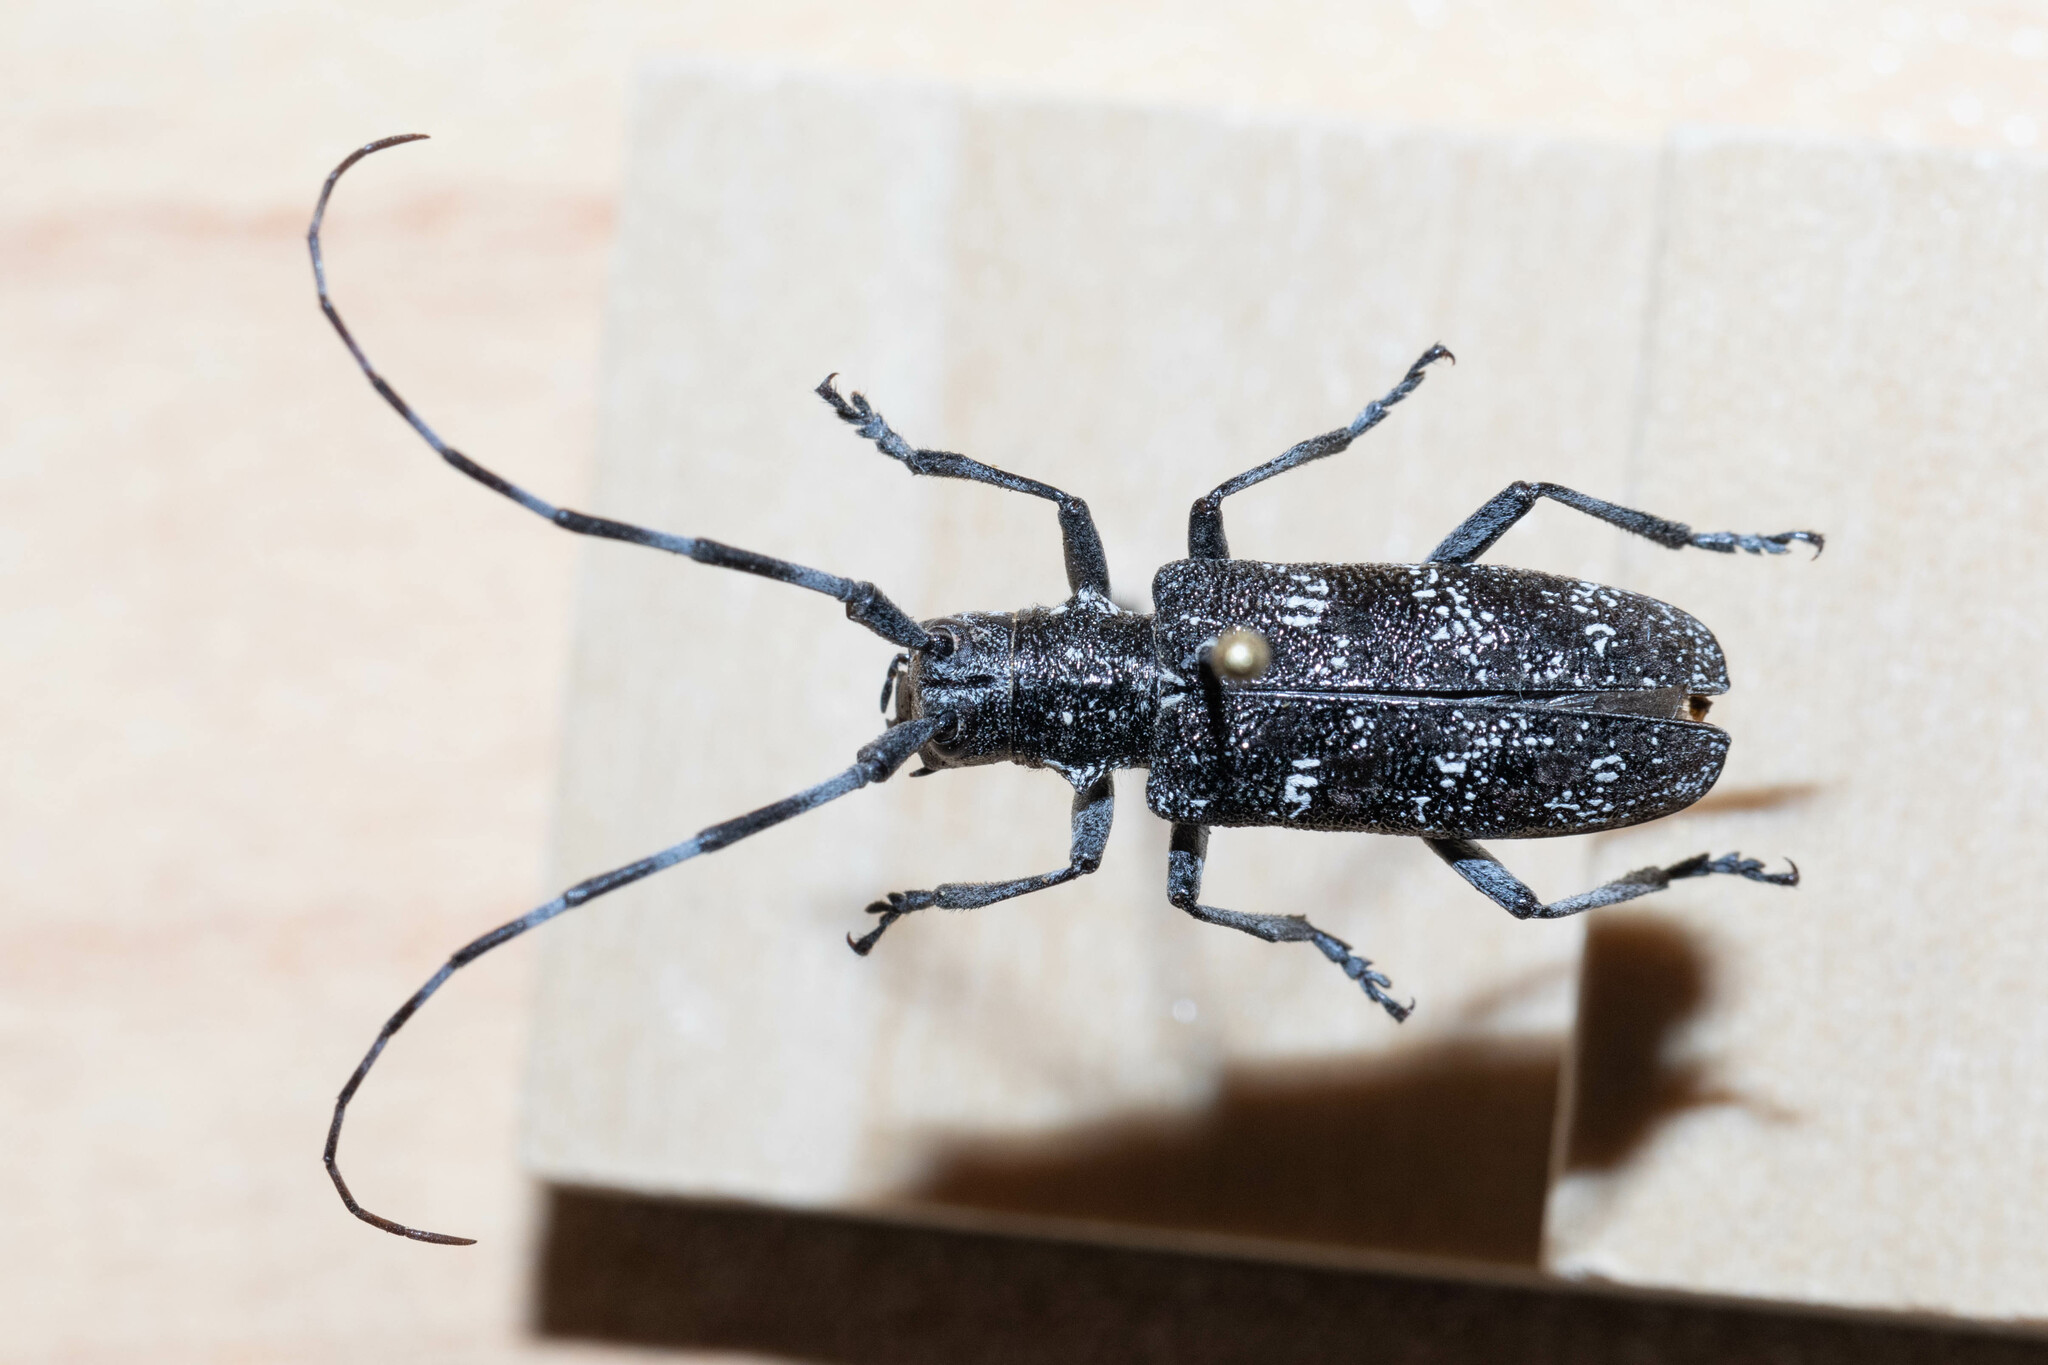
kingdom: Animalia
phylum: Arthropoda
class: Insecta
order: Coleoptera
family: Cerambycidae
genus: Monochamus
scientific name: Monochamus clamator
